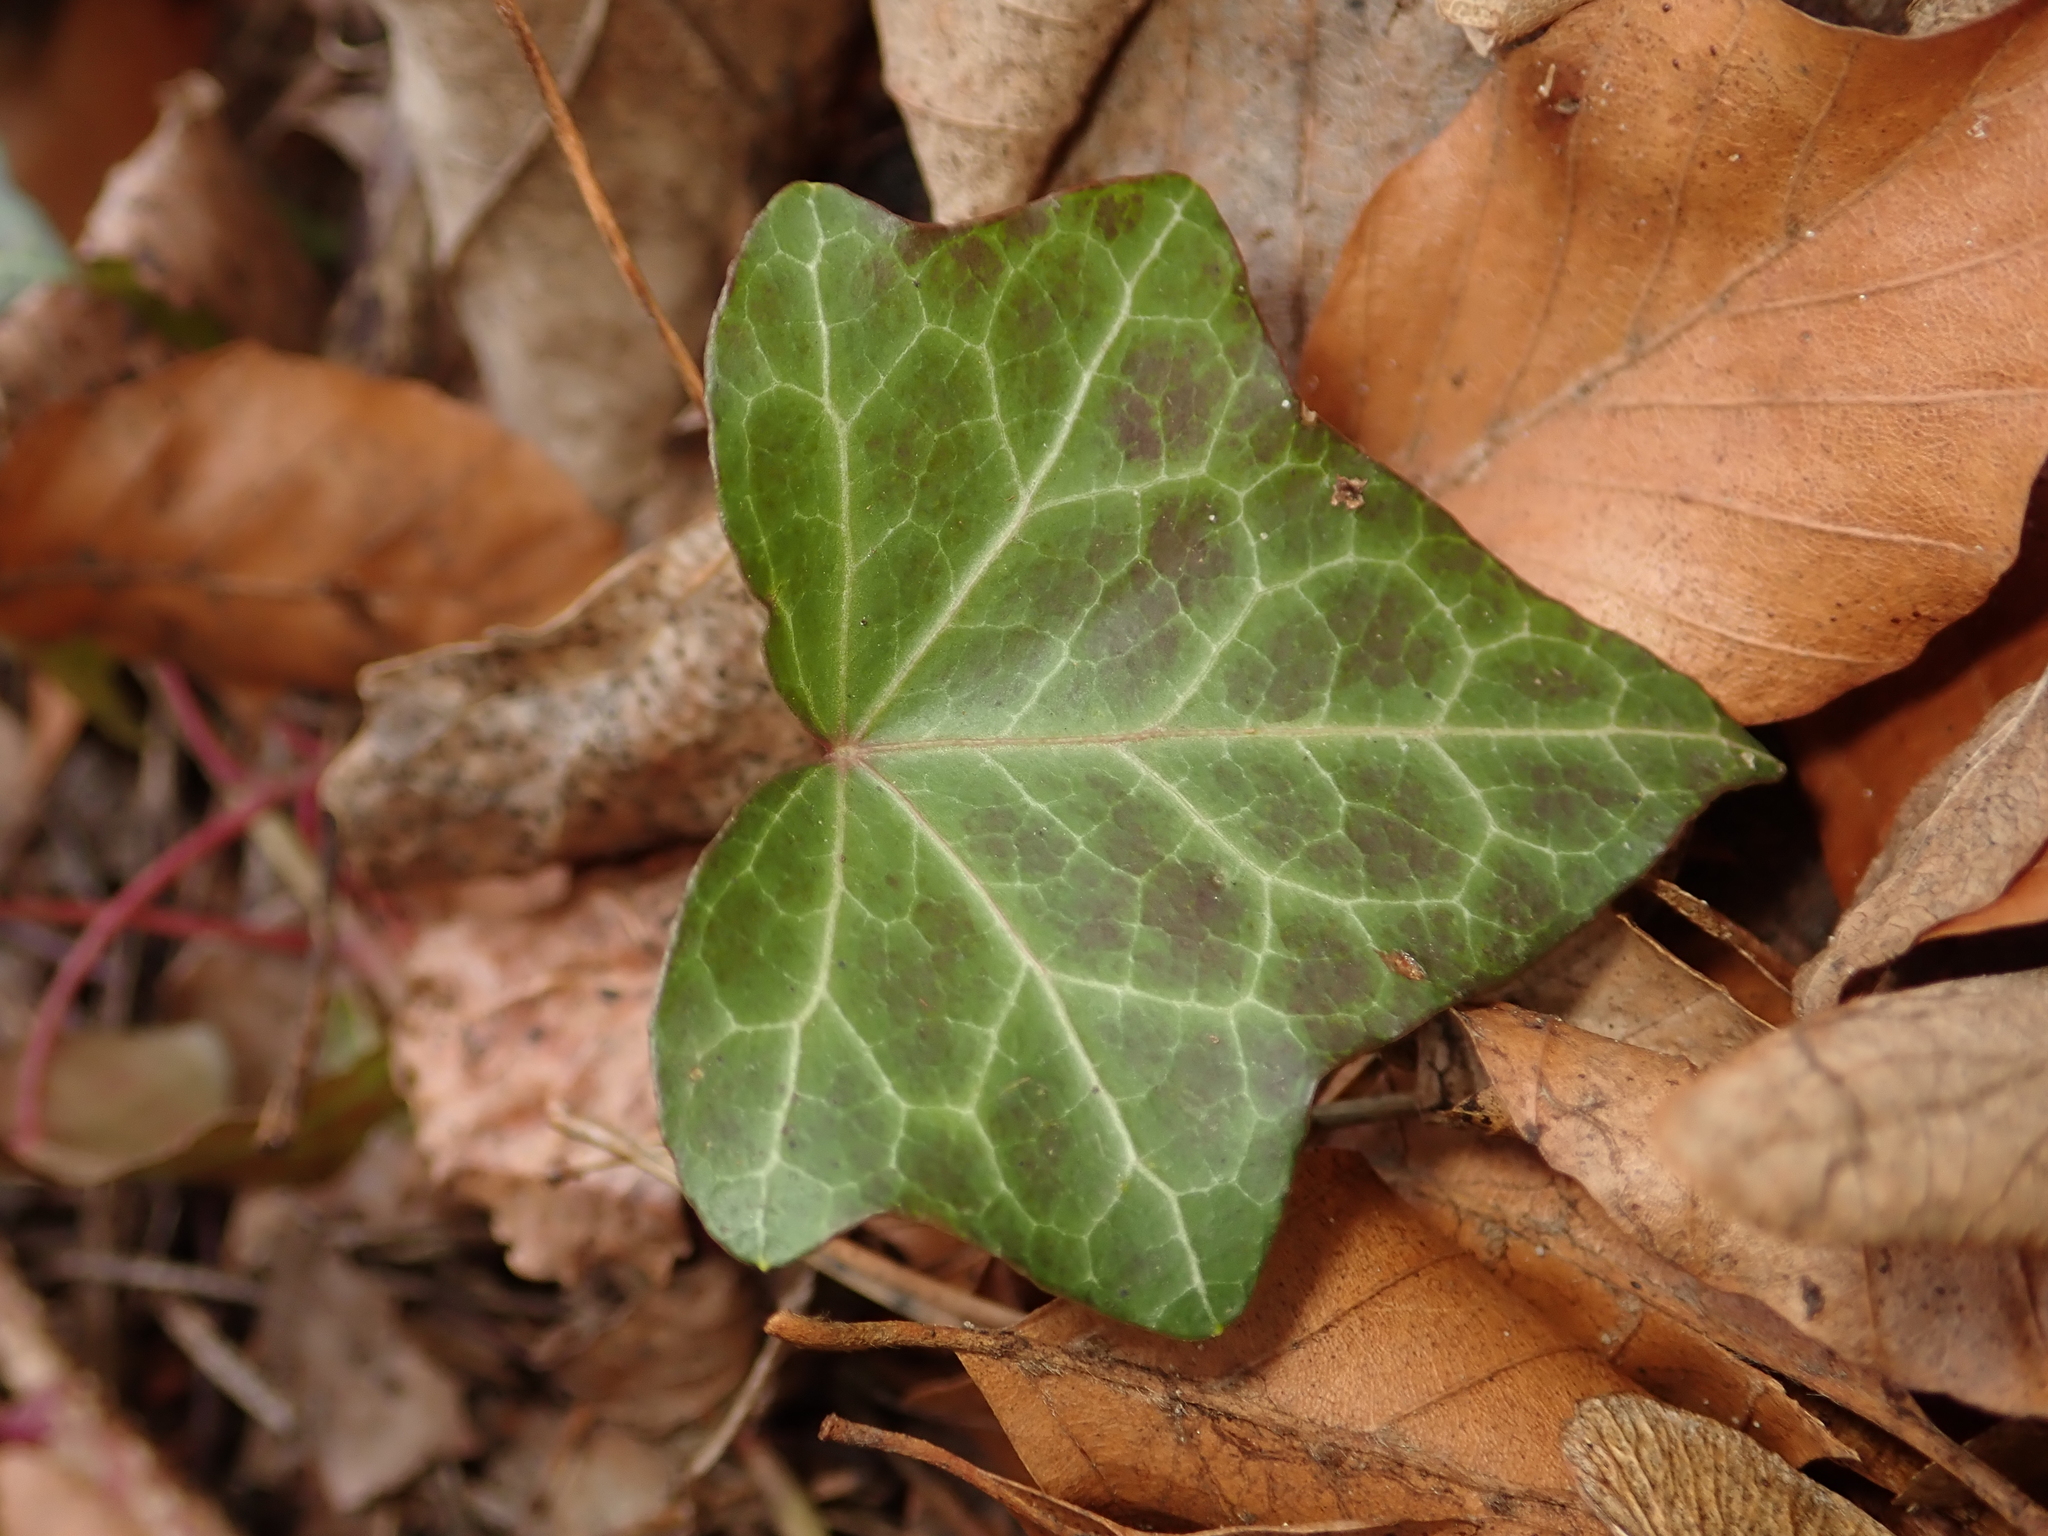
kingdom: Plantae
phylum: Tracheophyta
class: Magnoliopsida
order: Apiales
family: Araliaceae
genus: Hedera
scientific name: Hedera helix
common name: Ivy
